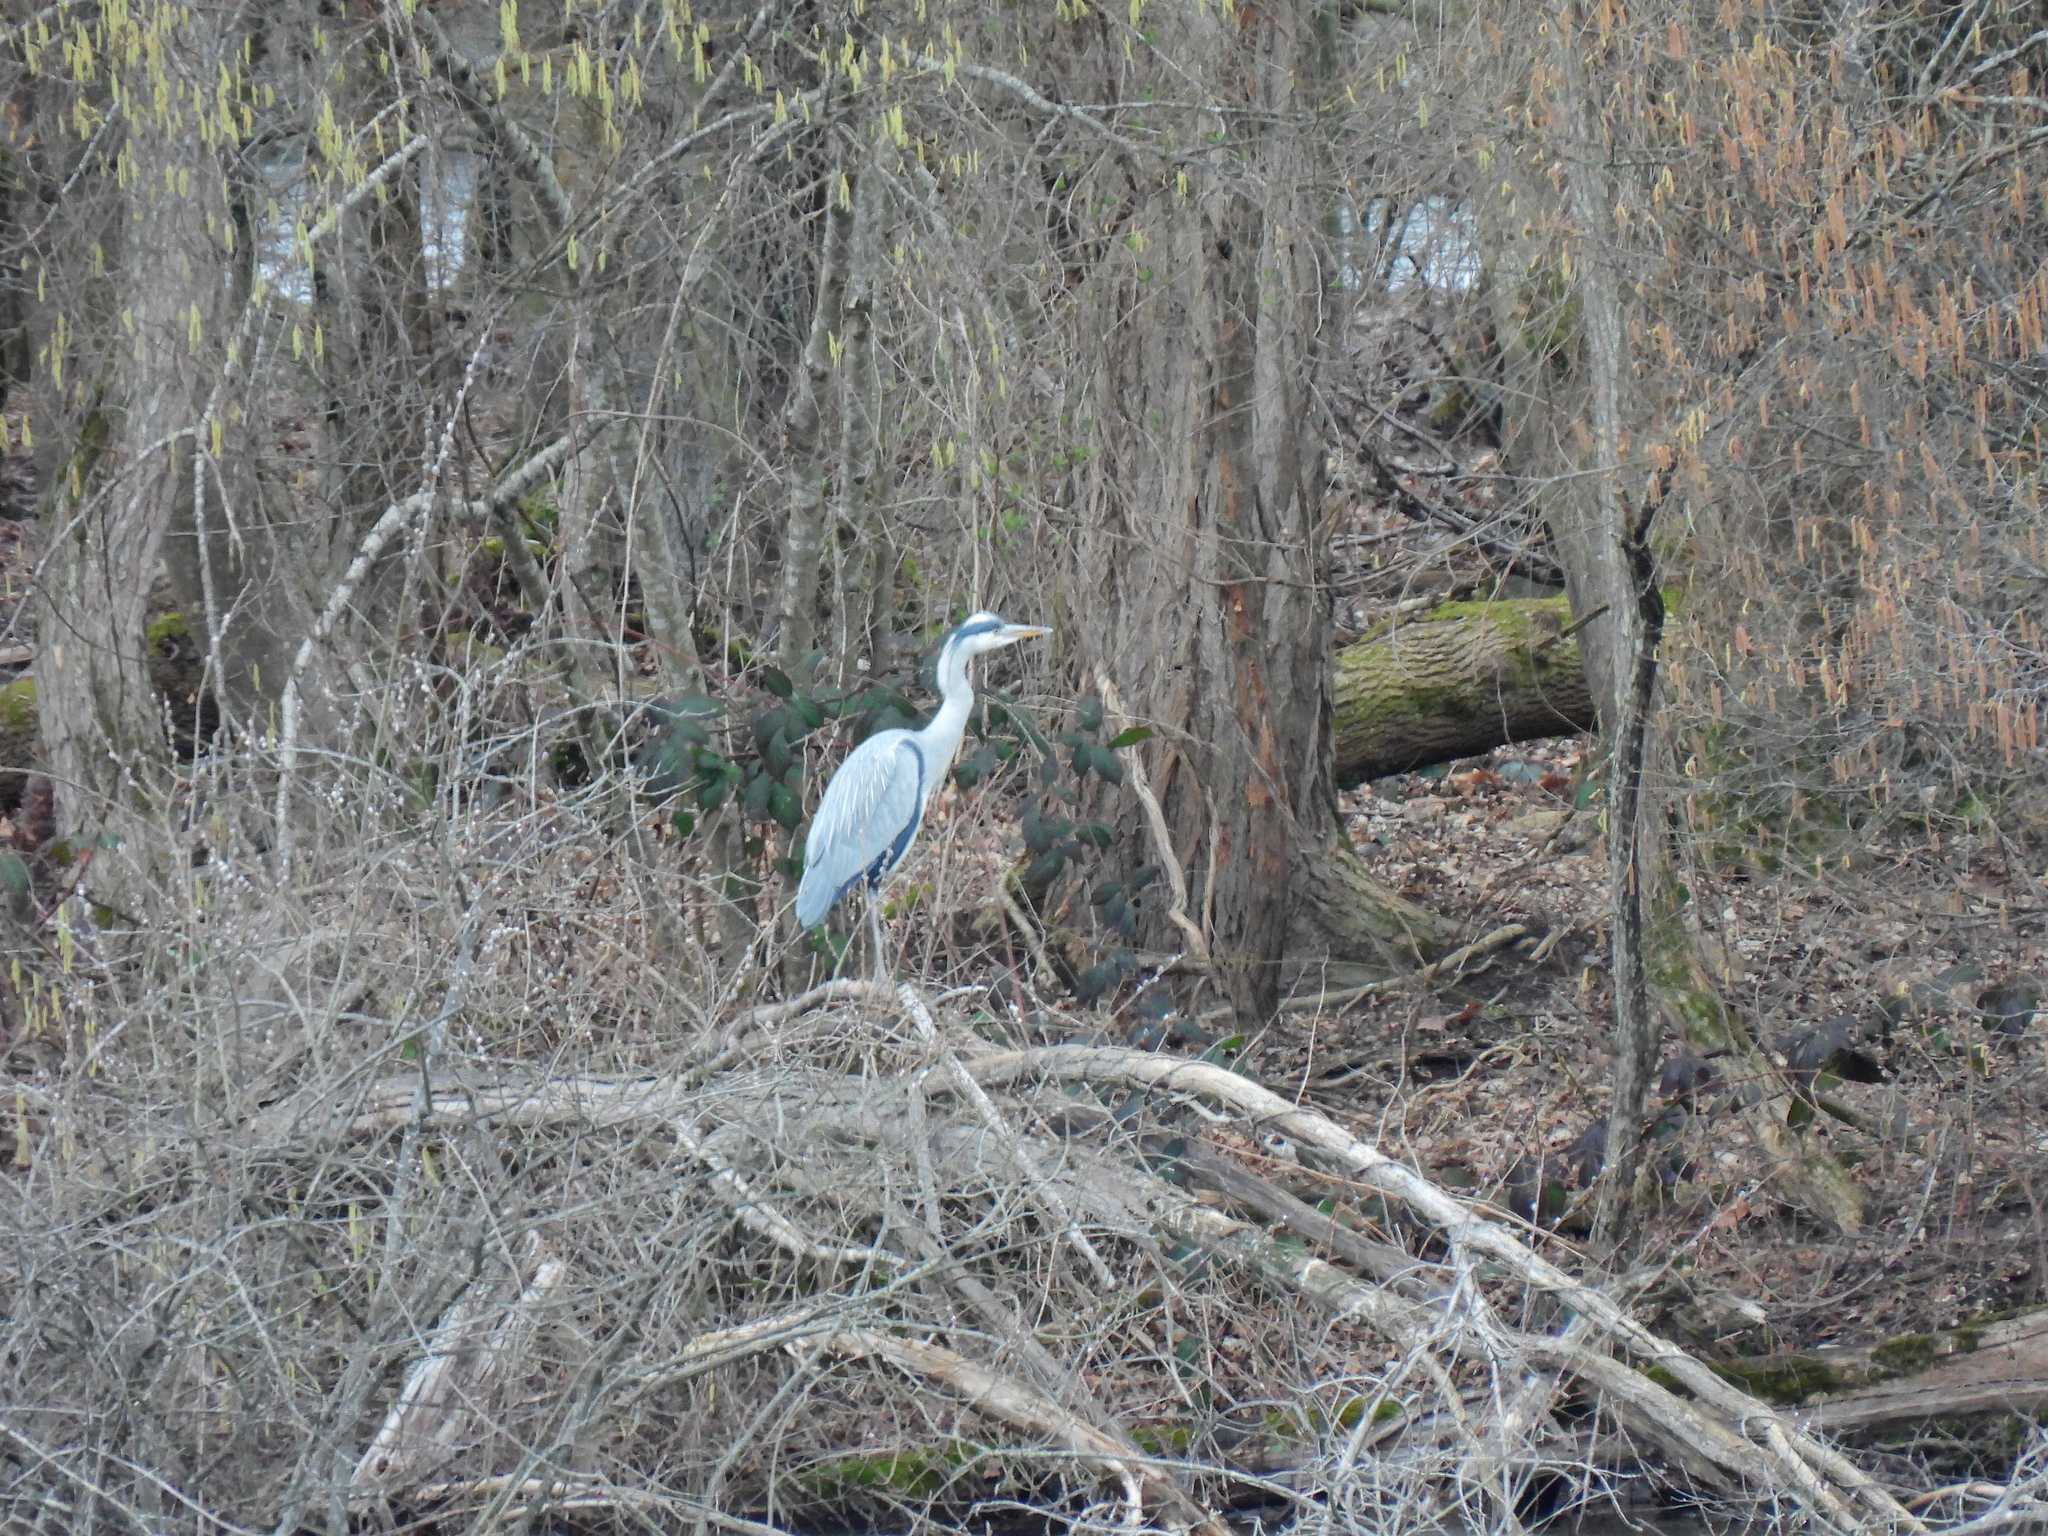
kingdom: Animalia
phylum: Chordata
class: Aves
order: Pelecaniformes
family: Ardeidae
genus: Ardea
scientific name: Ardea cinerea
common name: Grey heron
